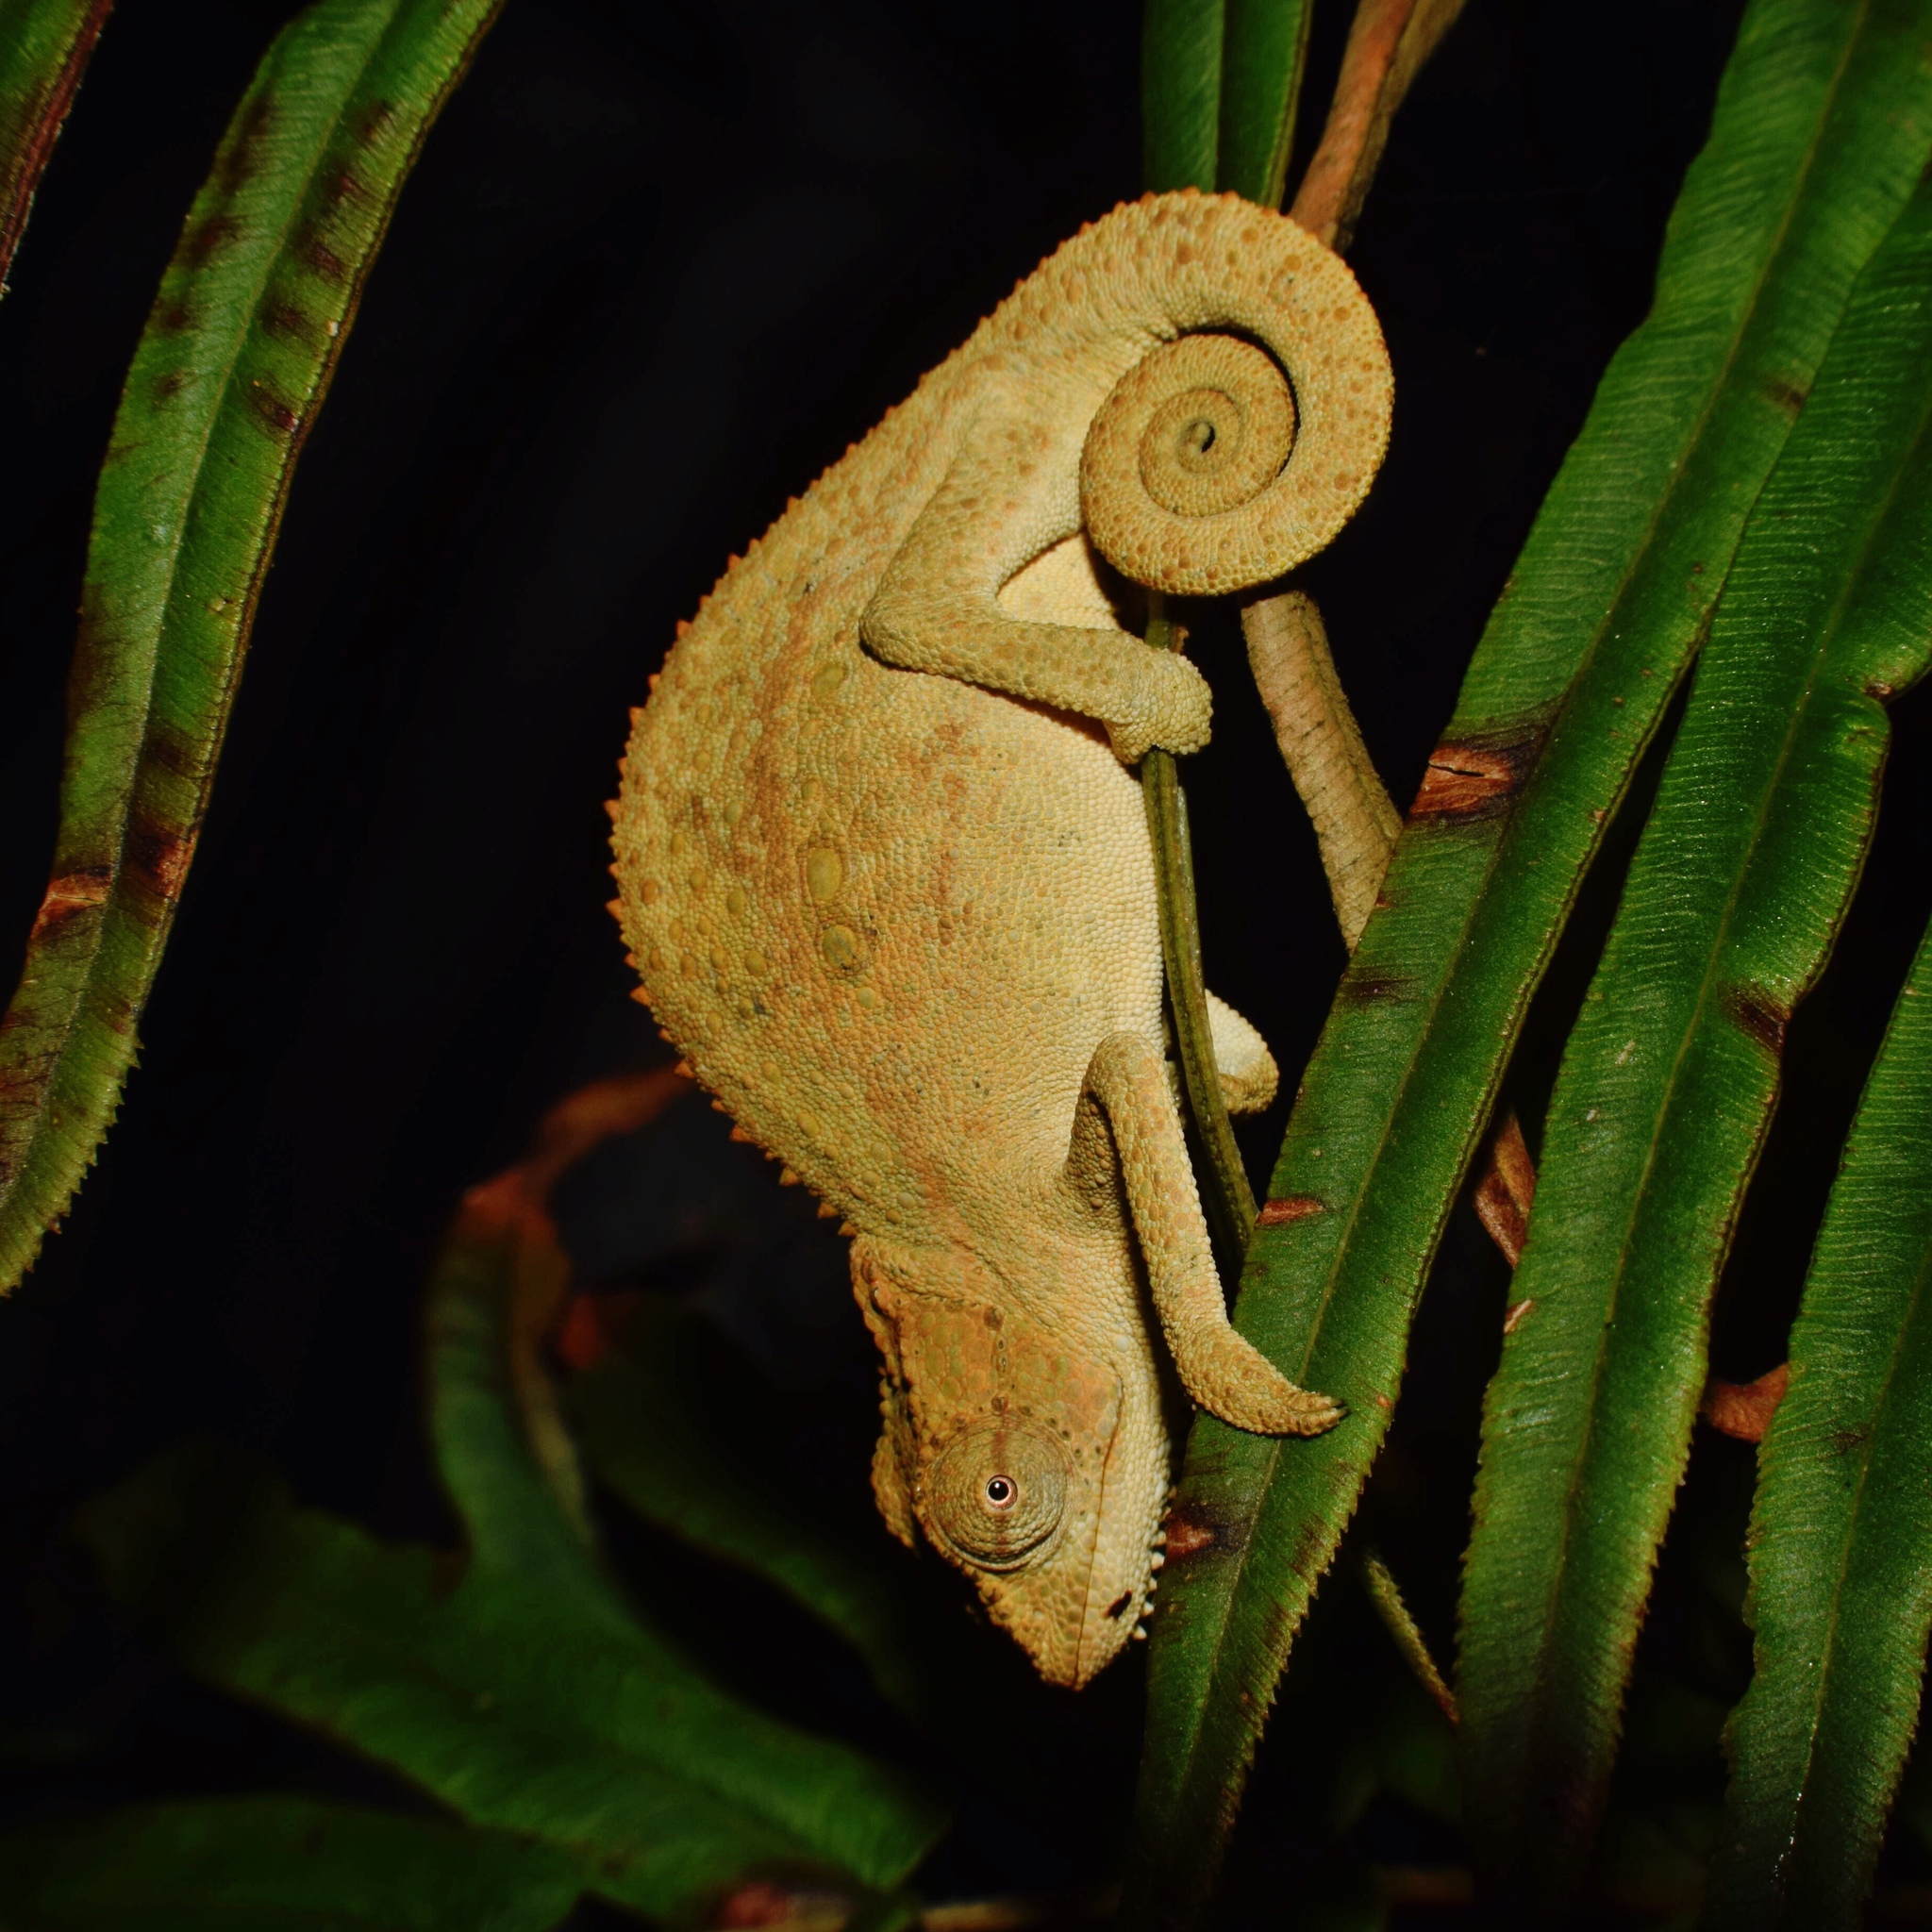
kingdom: Animalia
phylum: Chordata
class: Squamata
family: Chamaeleonidae
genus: Bradypodion
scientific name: Bradypodion melanocephalum
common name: Black-headed dwarf chameleon
